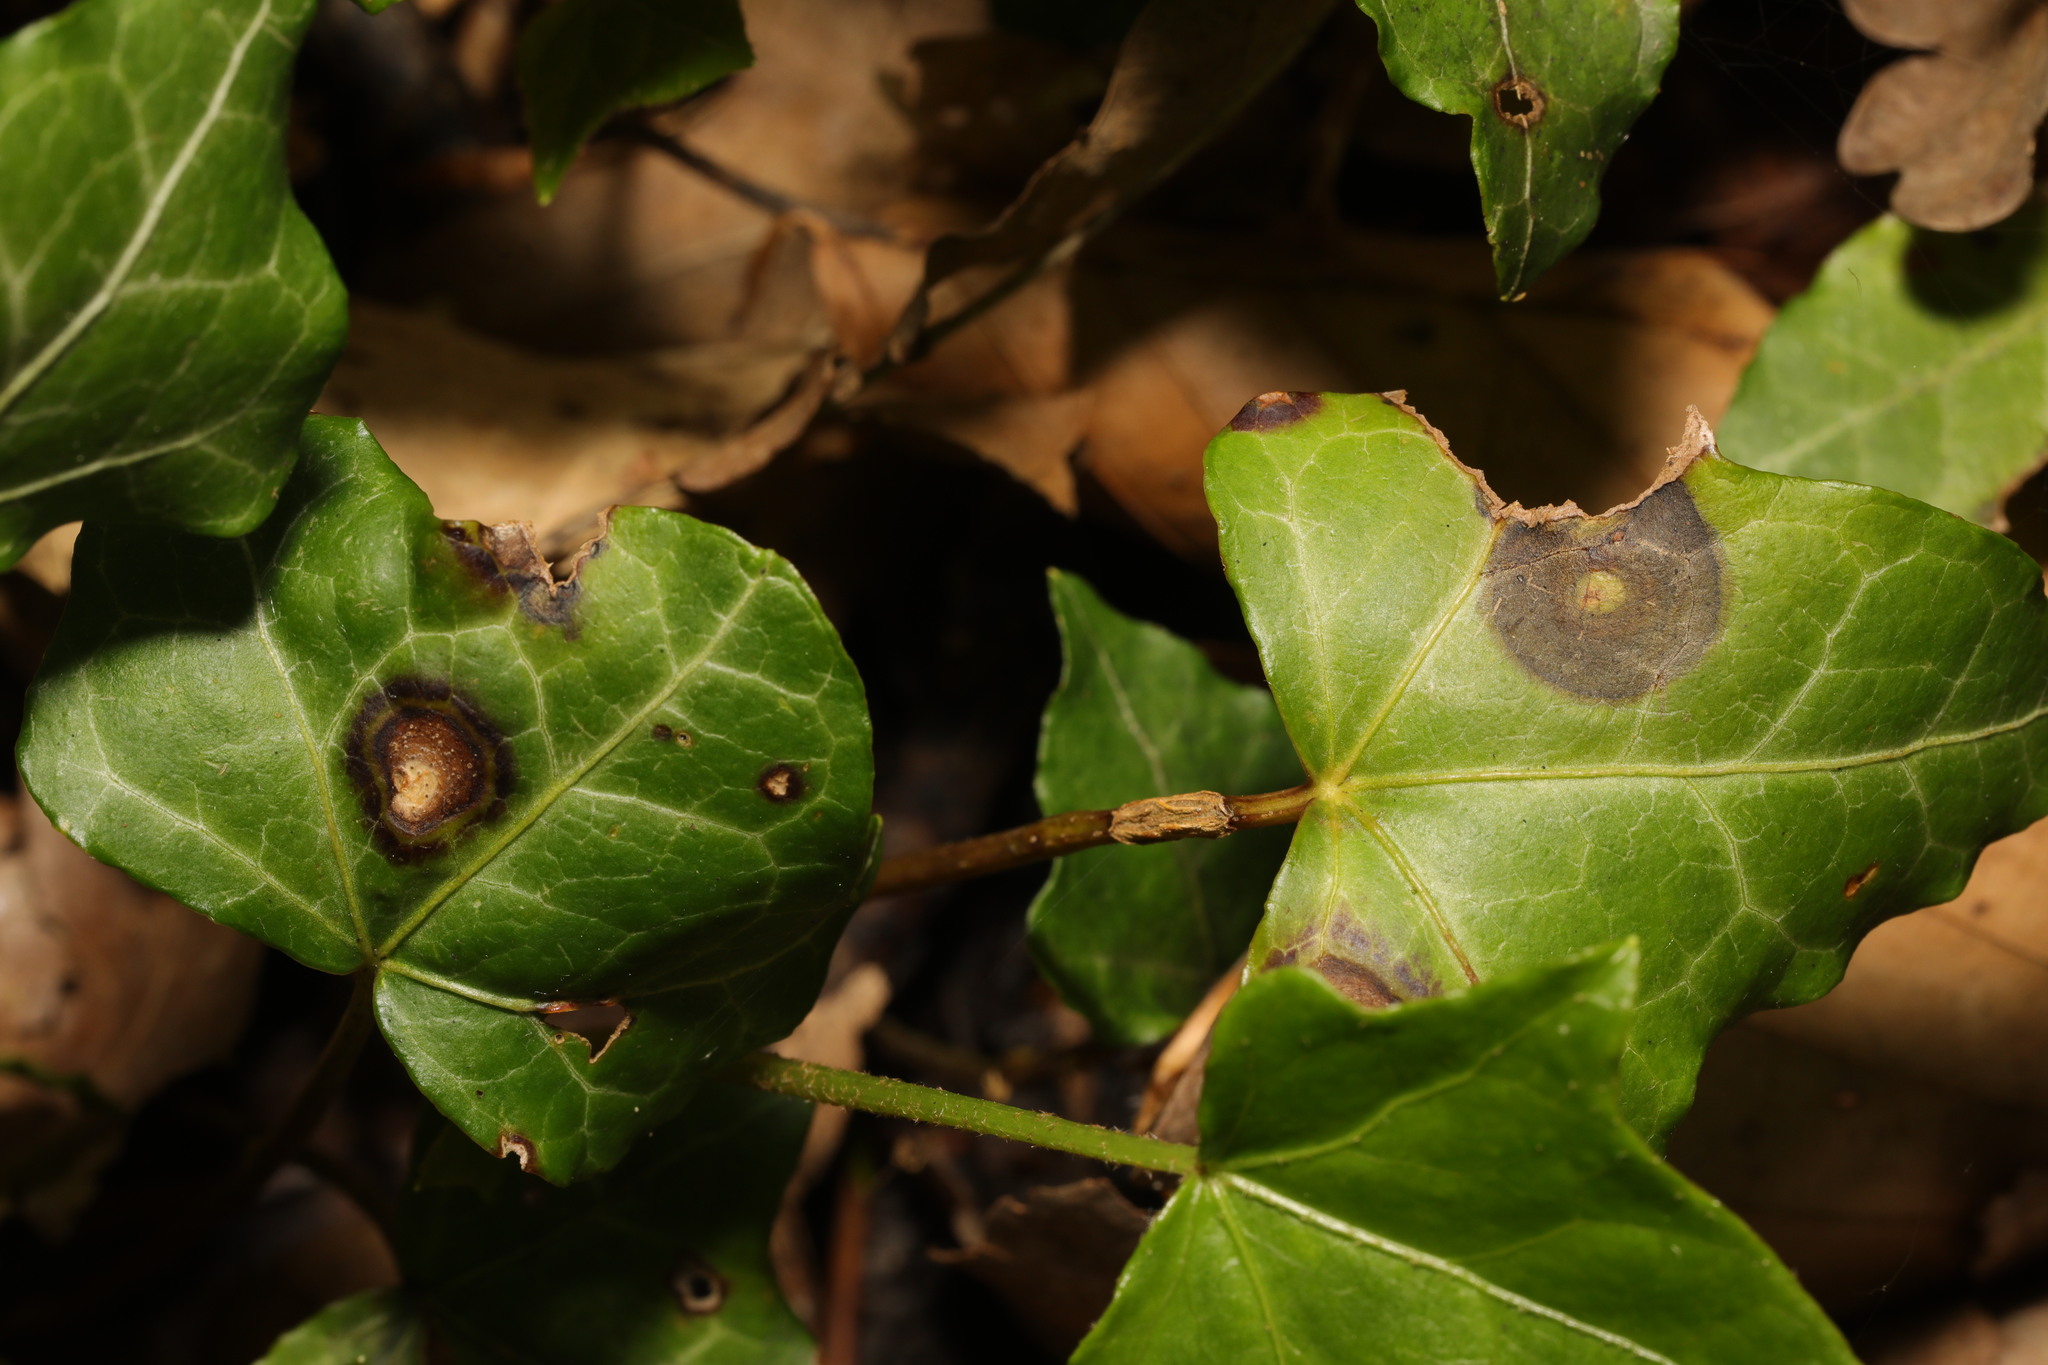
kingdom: Fungi
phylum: Ascomycota
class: Dothideomycetes
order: Pleosporales
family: Didymellaceae
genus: Boeremia
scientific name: Boeremia hedericola
